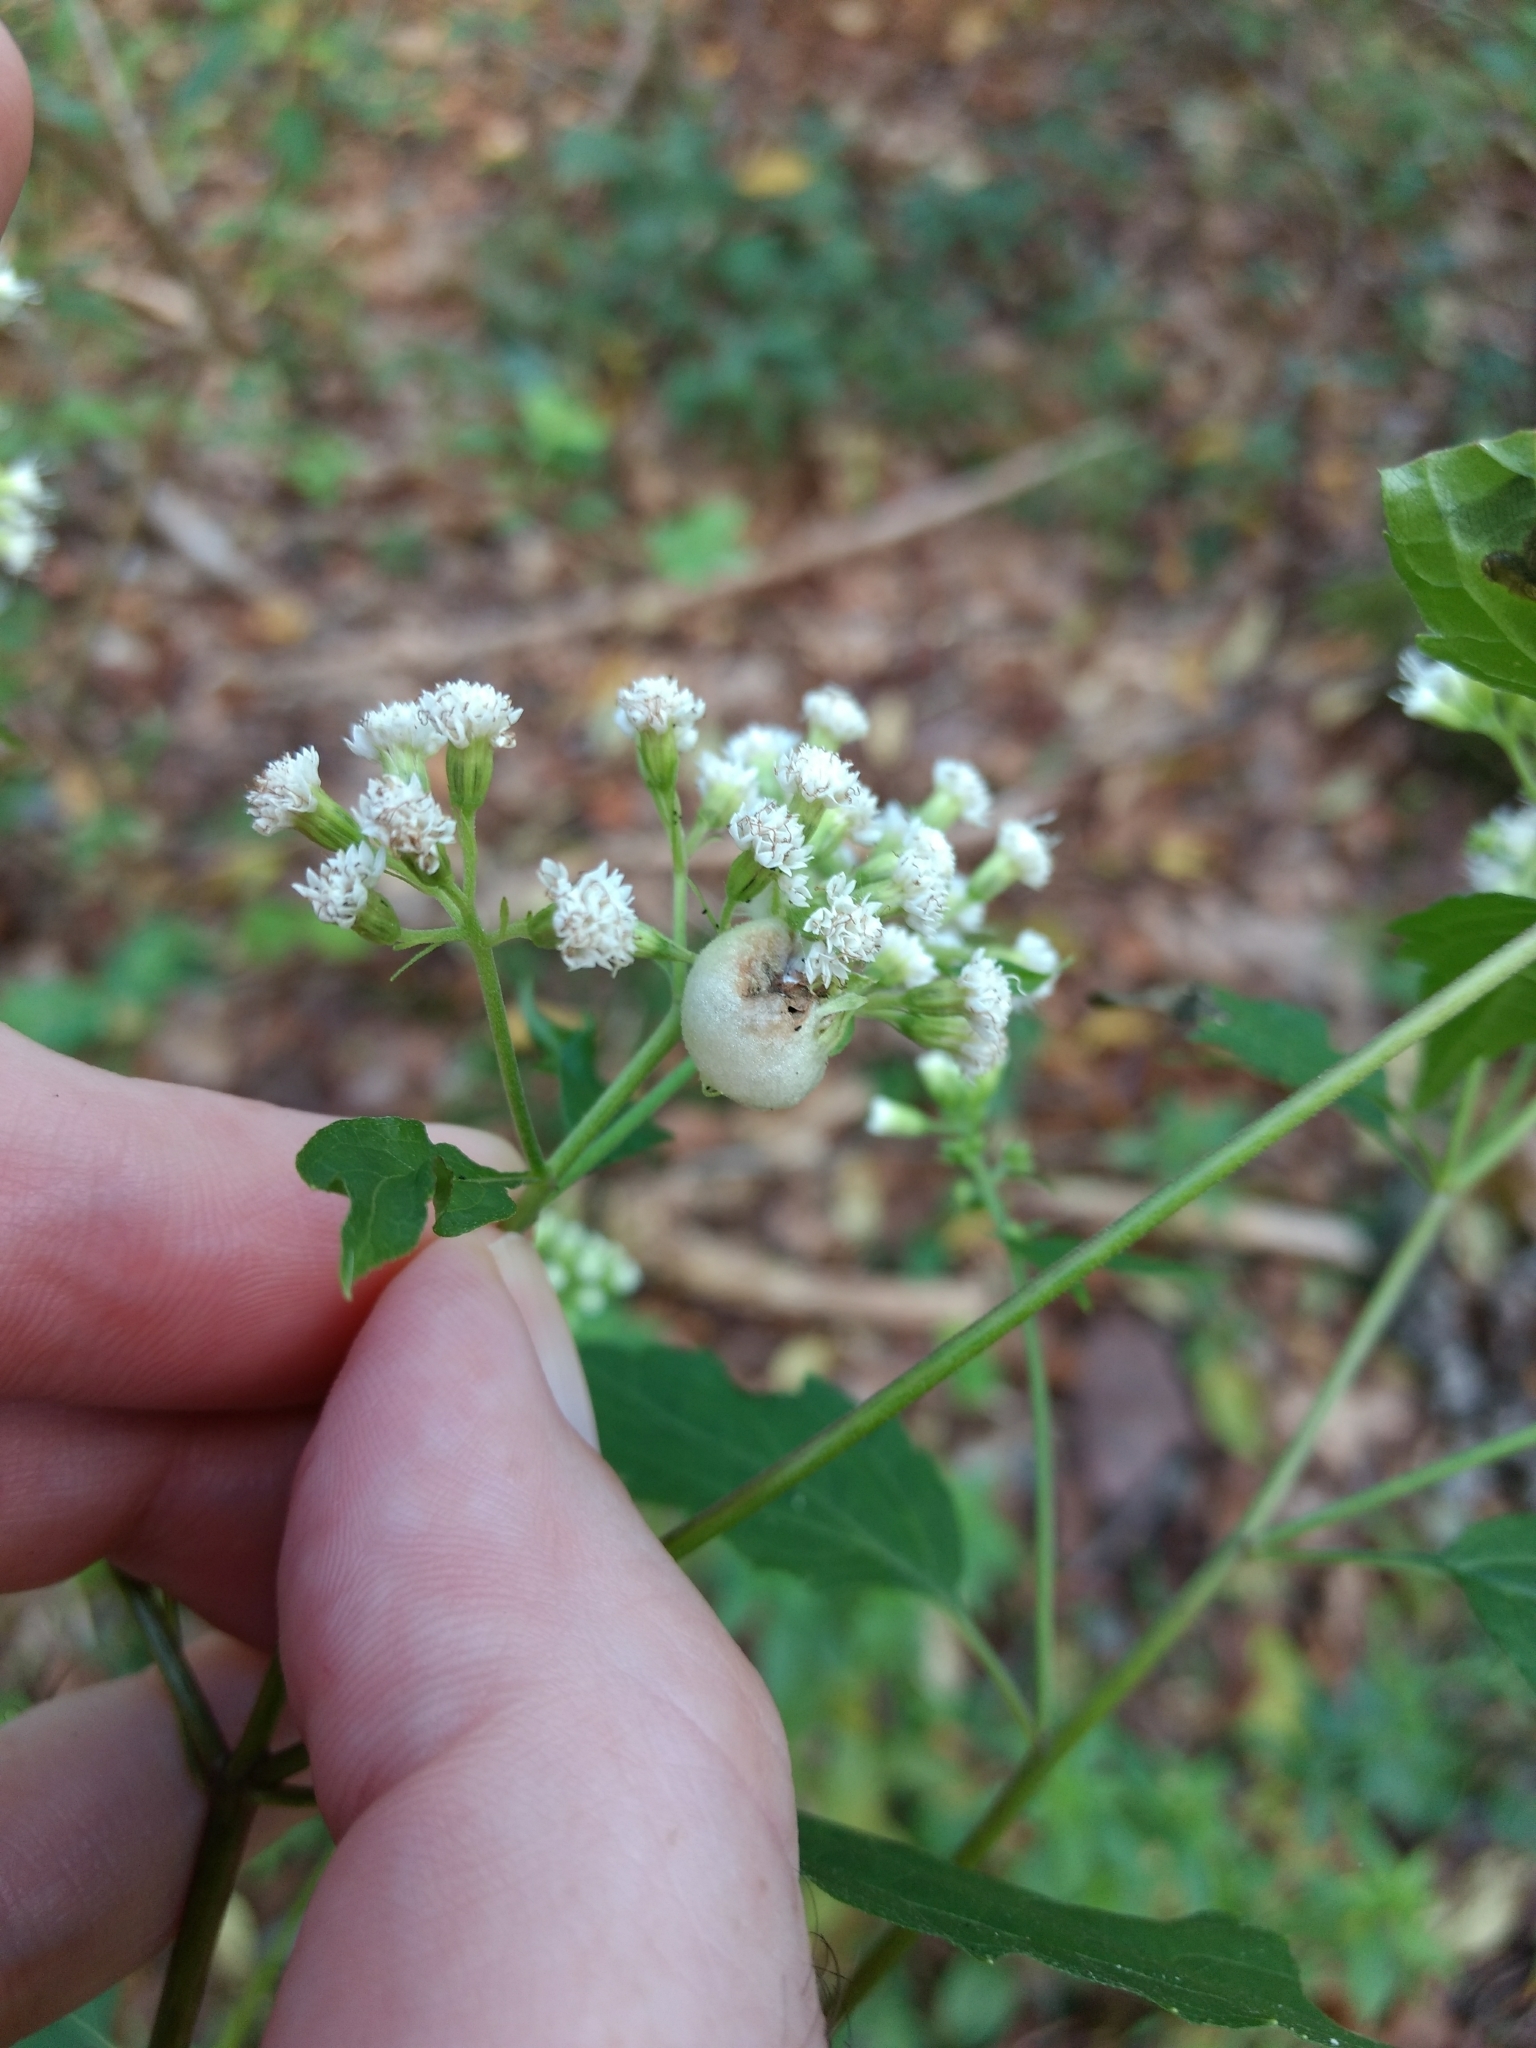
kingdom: Animalia
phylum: Arthropoda
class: Insecta
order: Diptera
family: Cecidomyiidae
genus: Schizomyia
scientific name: Schizomyia eupatoriflorae
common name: Boneset flower gall midge
